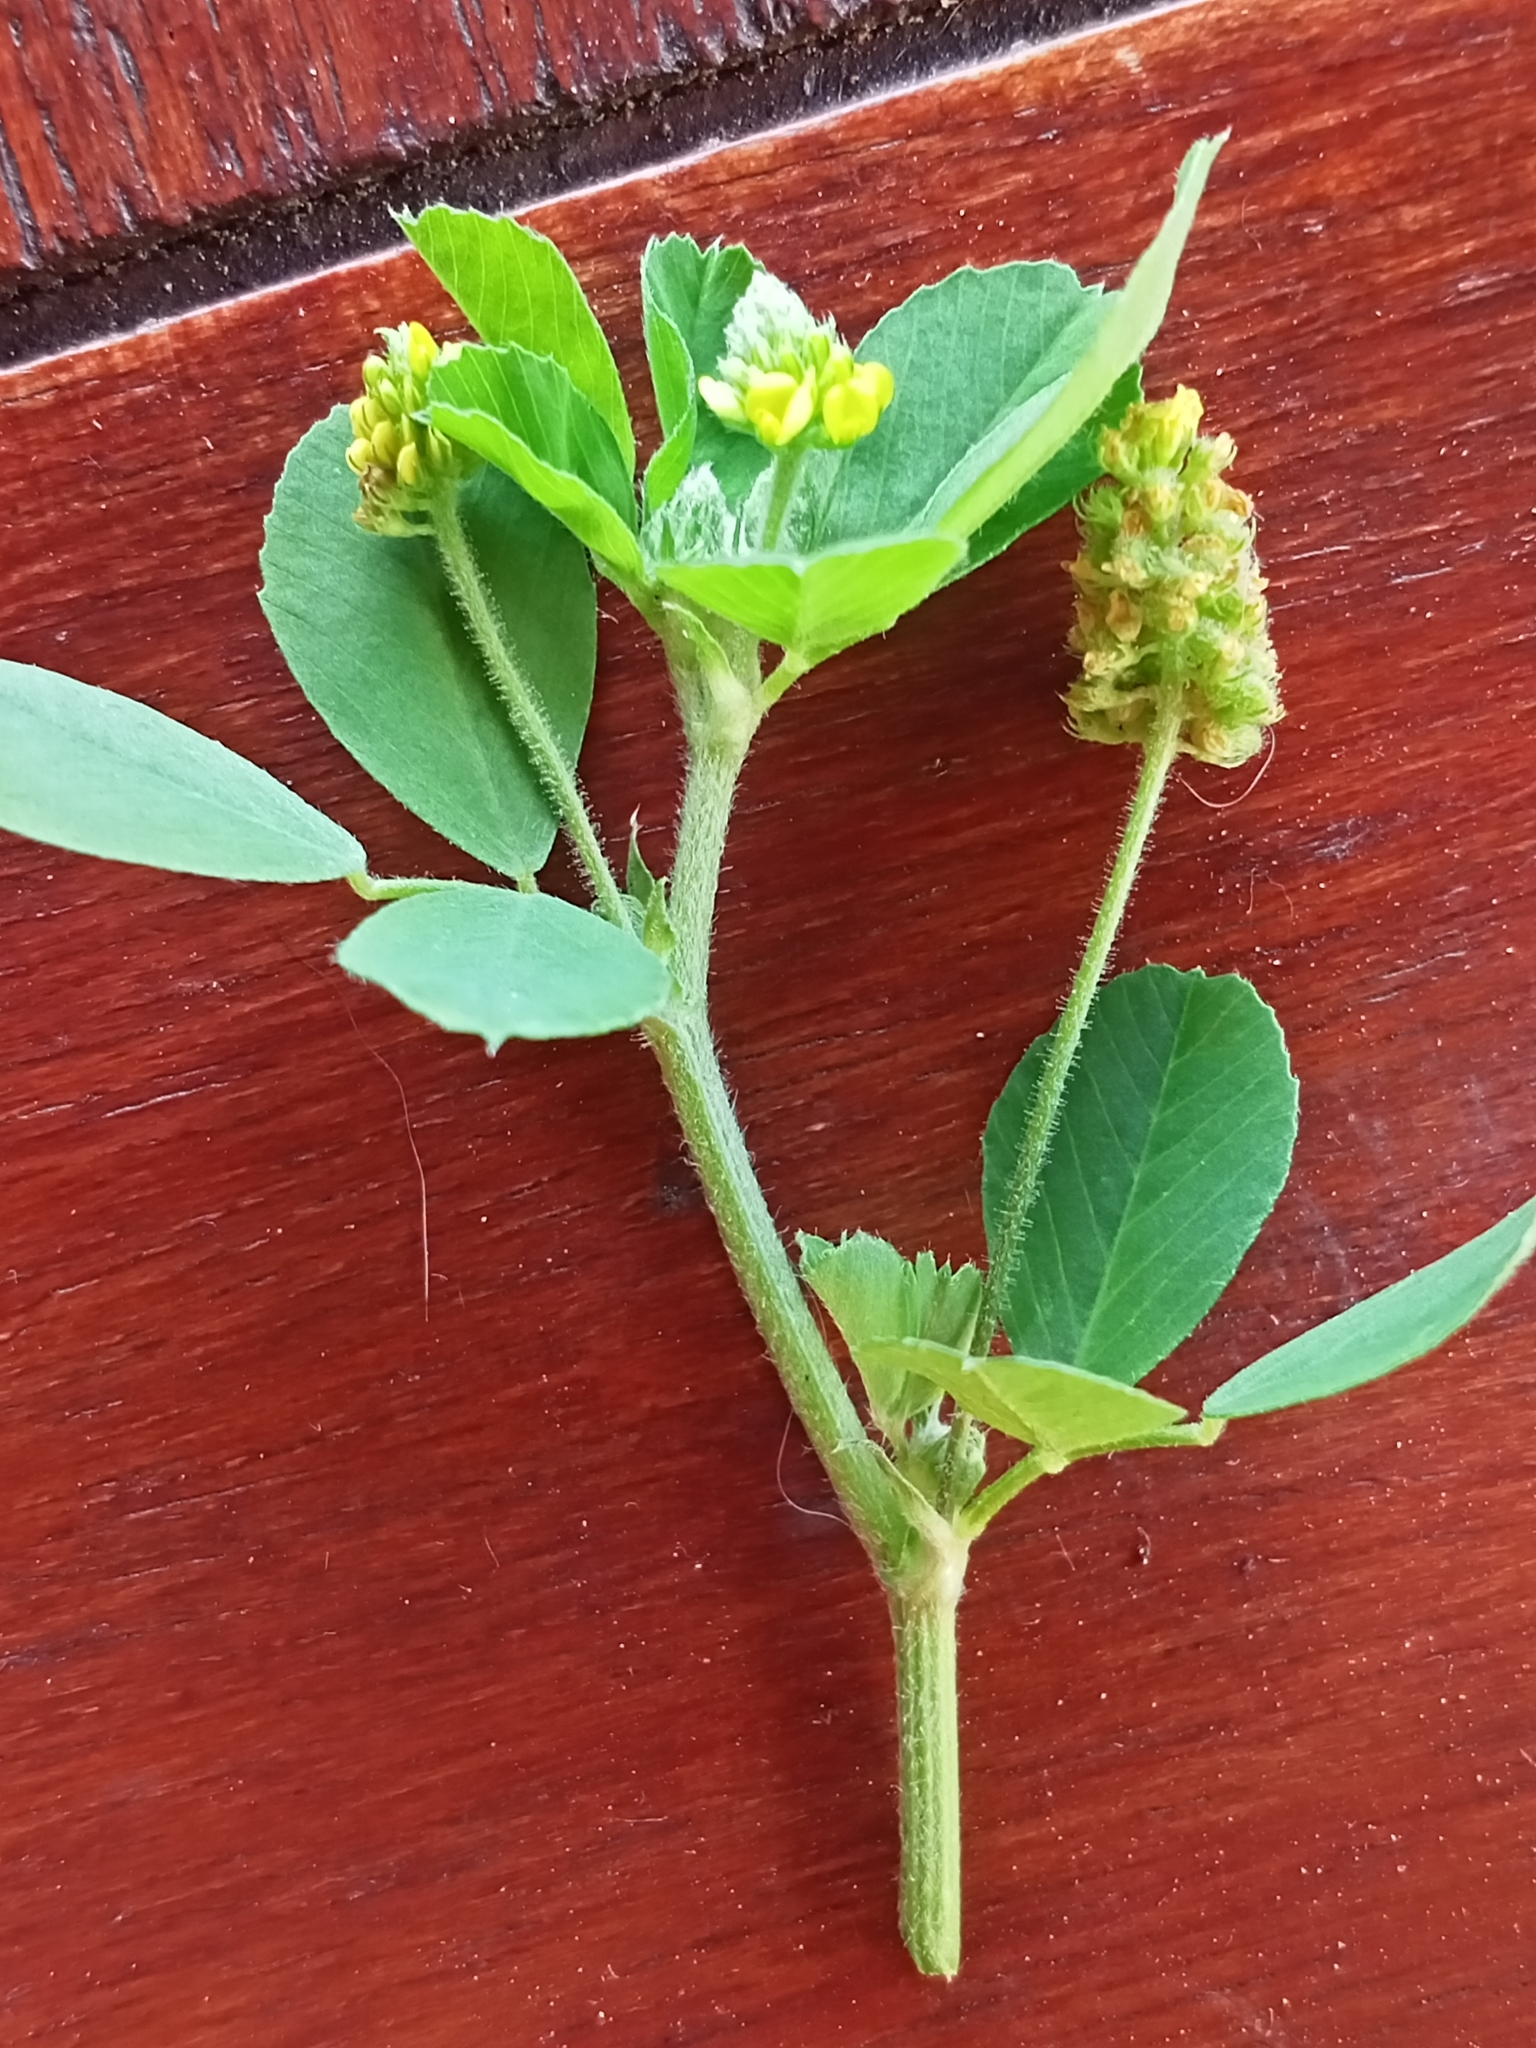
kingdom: Plantae
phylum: Tracheophyta
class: Magnoliopsida
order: Fabales
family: Fabaceae
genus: Medicago
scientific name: Medicago lupulina
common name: Black medick
